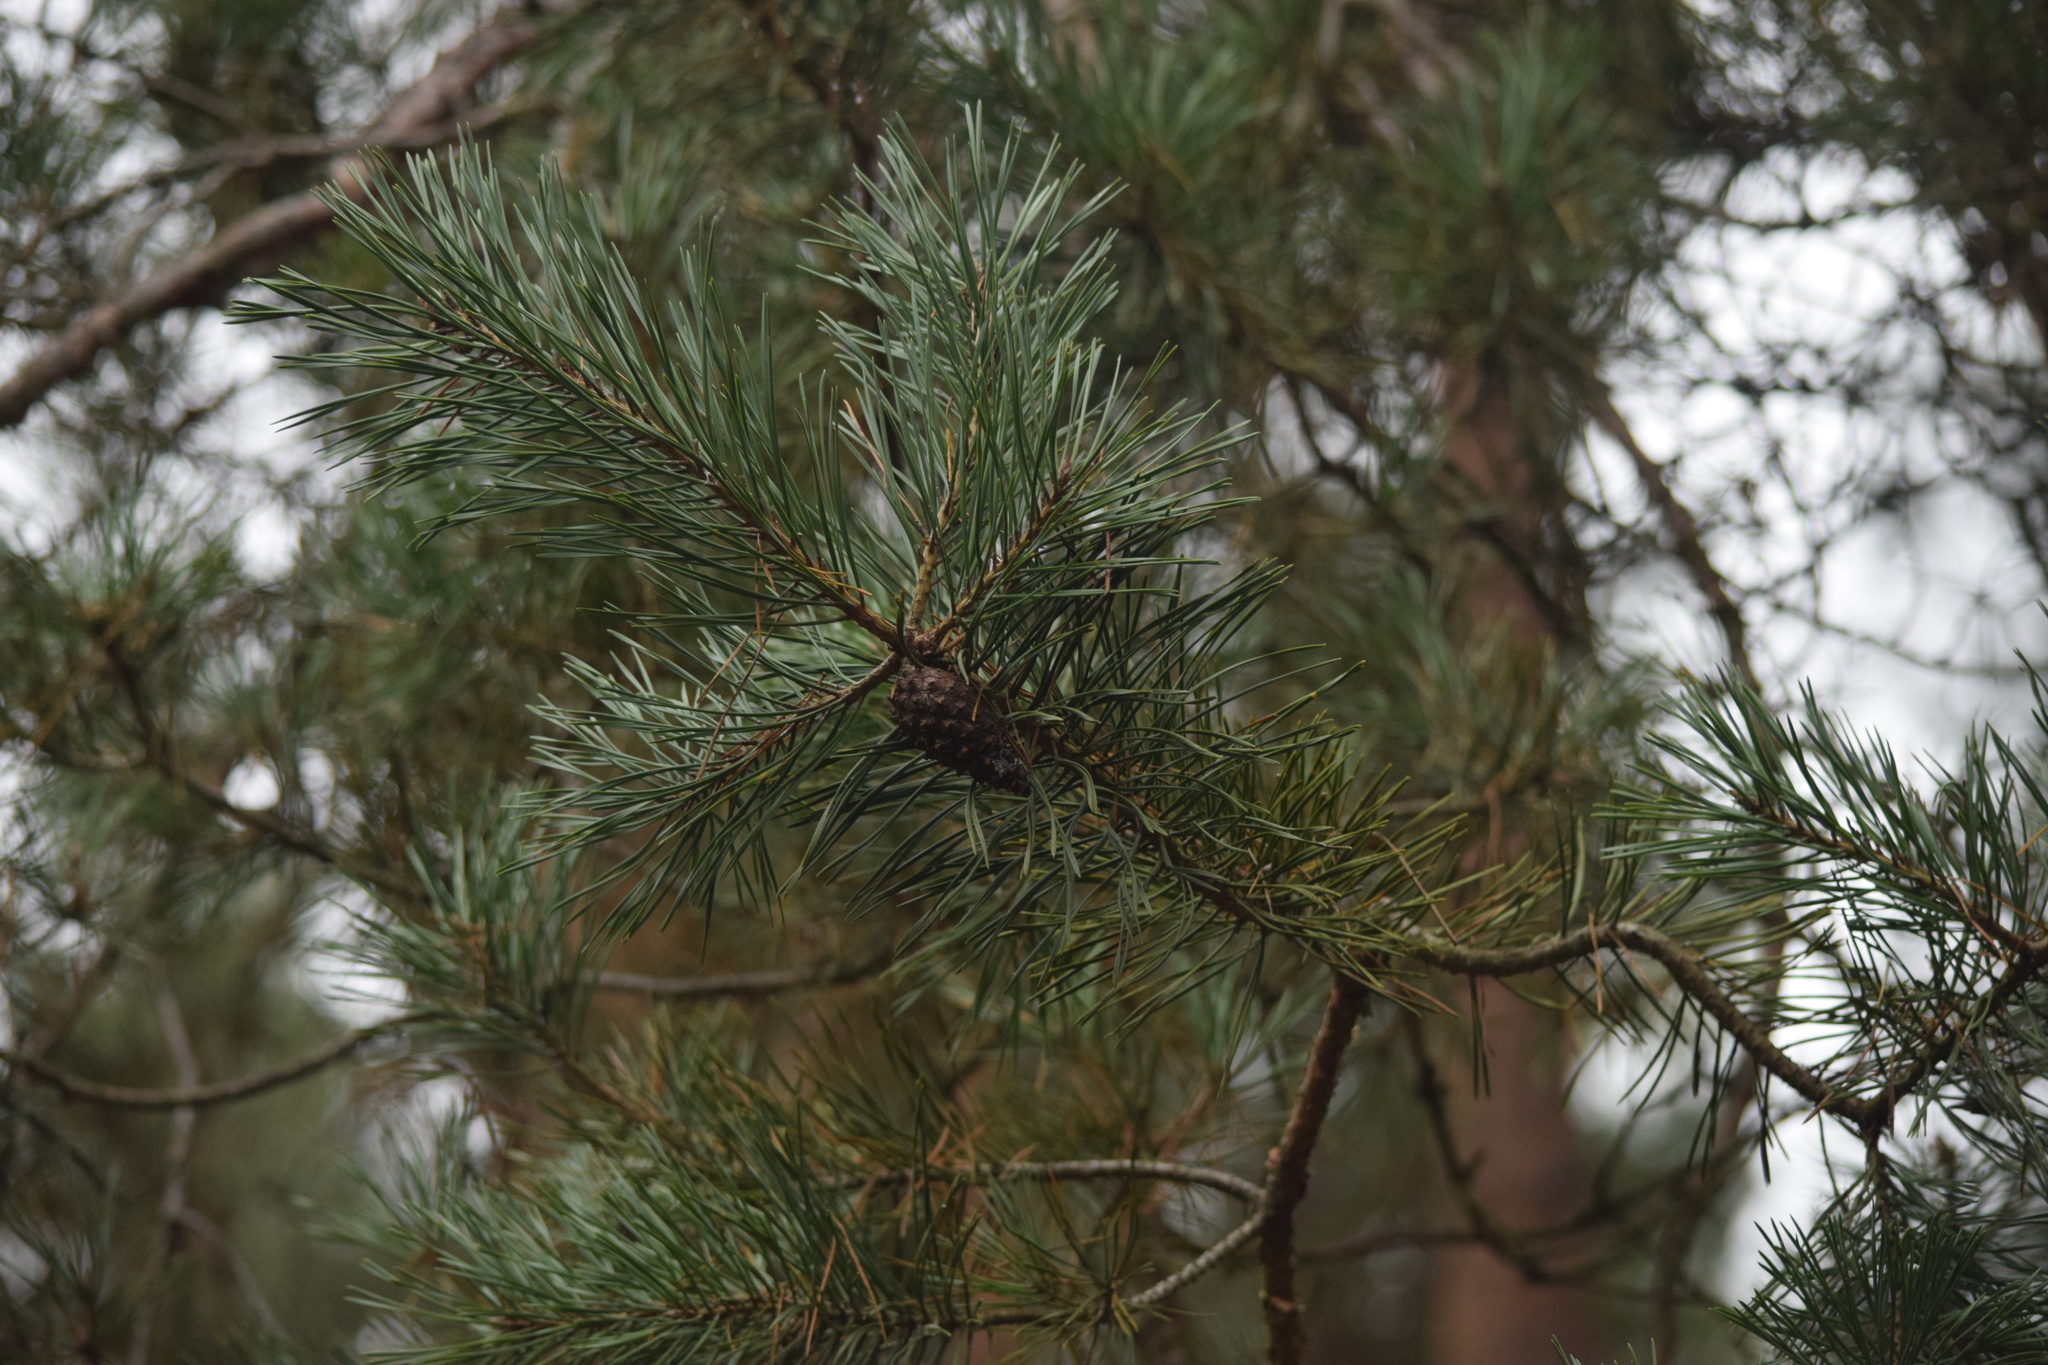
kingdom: Plantae
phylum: Tracheophyta
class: Pinopsida
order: Pinales
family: Pinaceae
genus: Pinus
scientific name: Pinus sylvestris
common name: Scots pine
